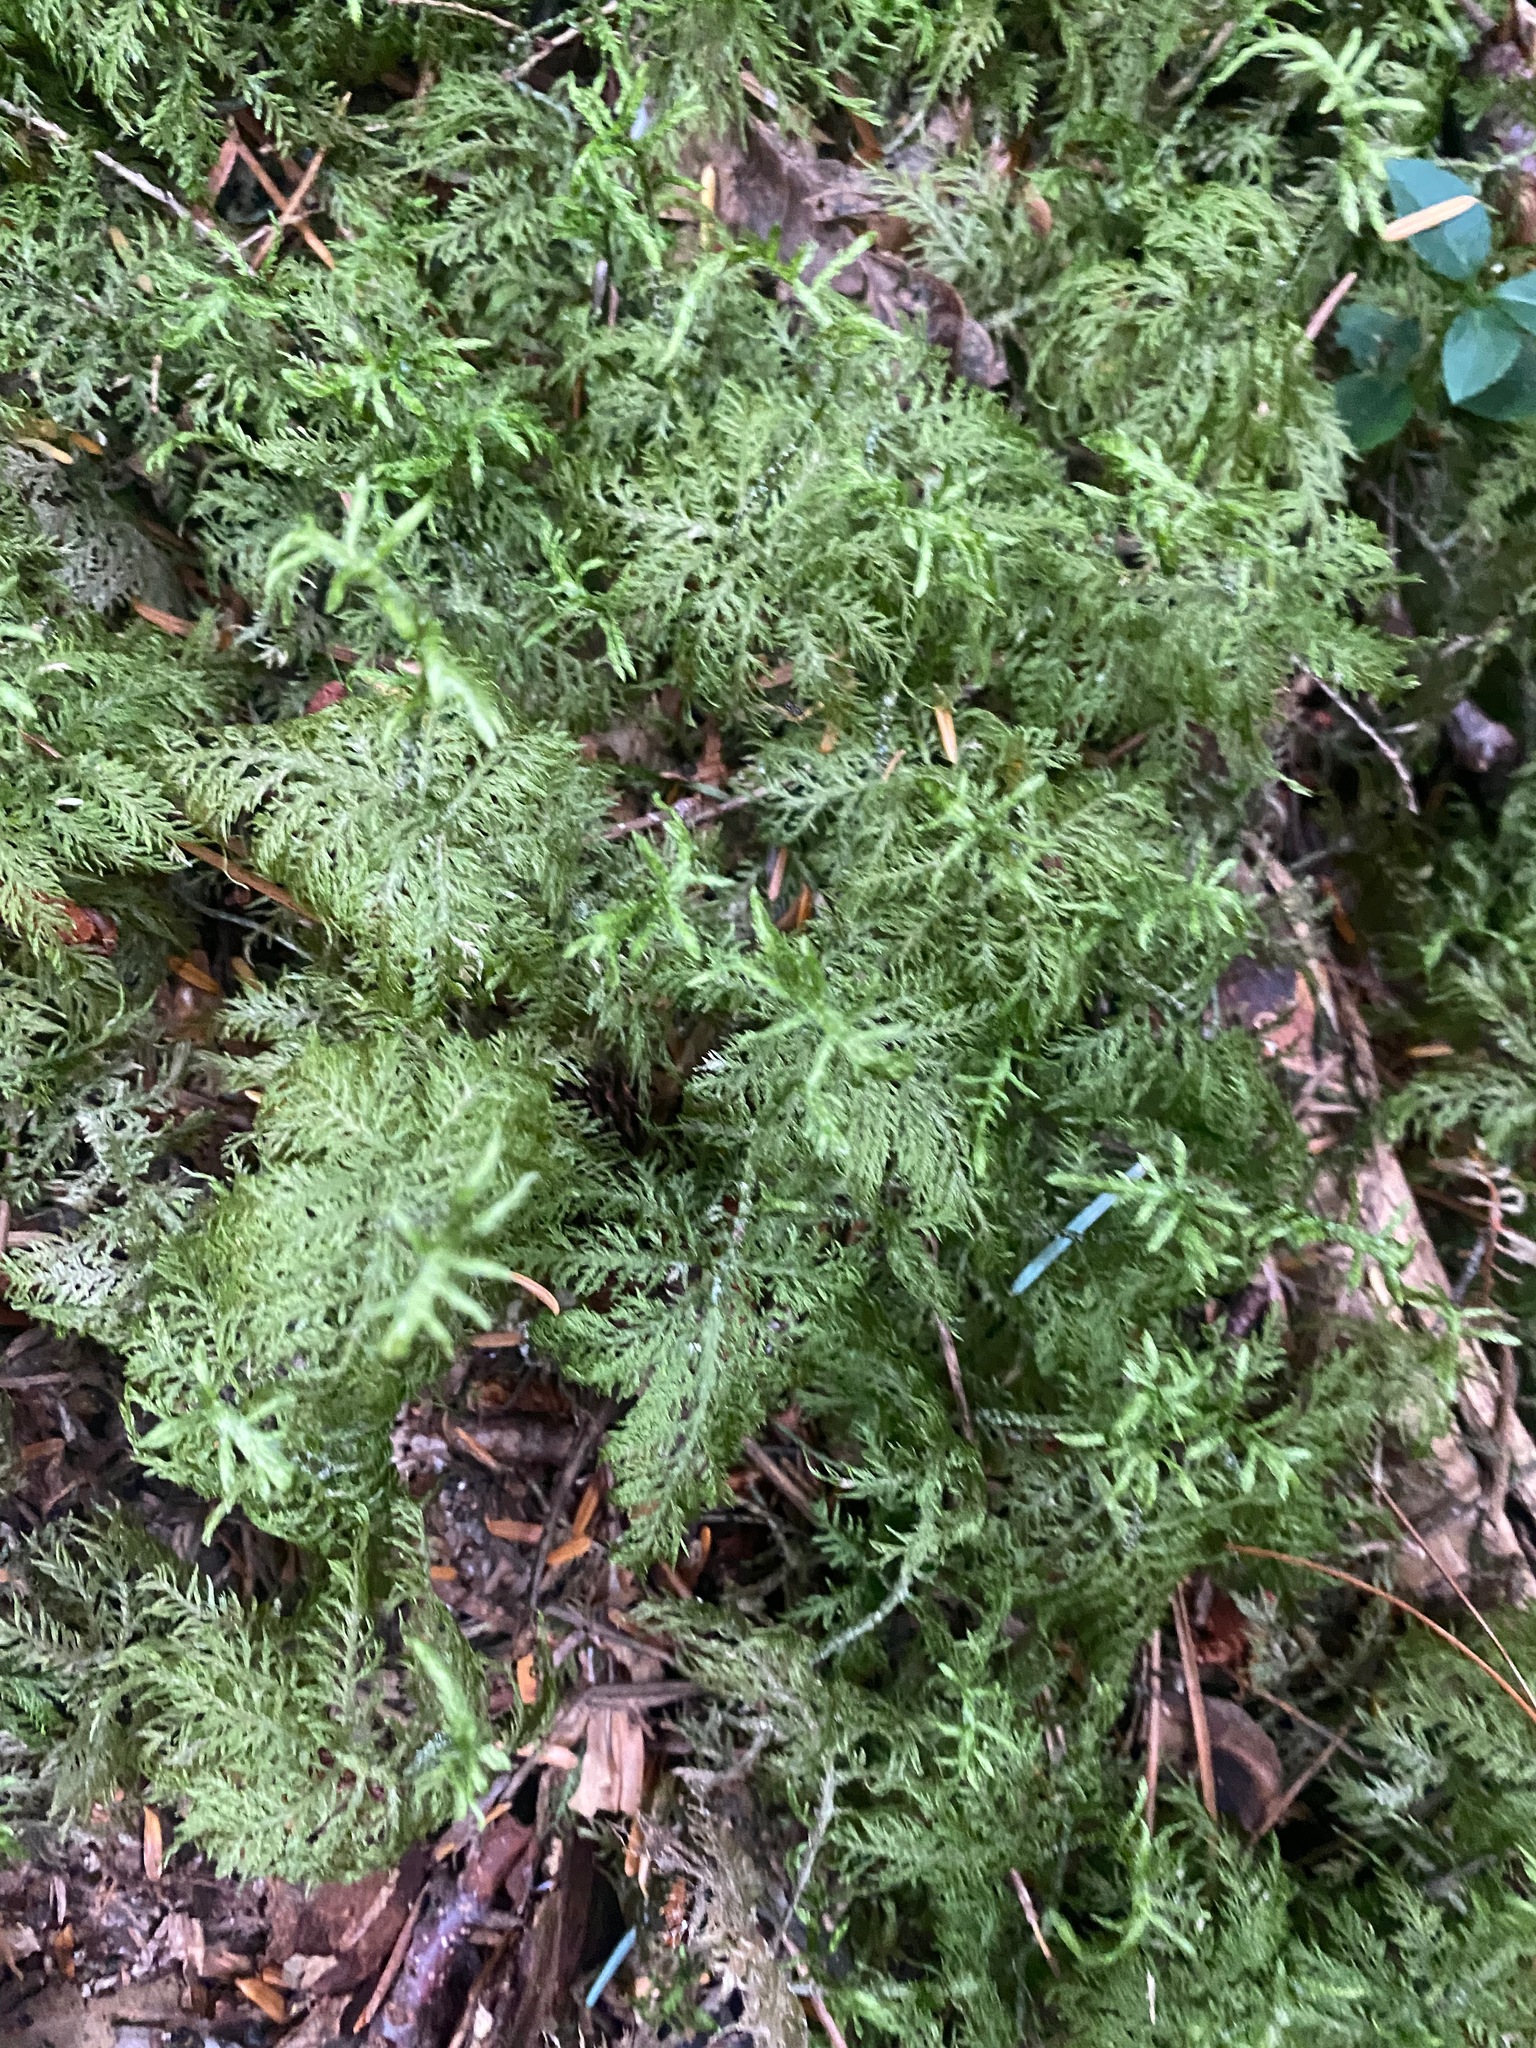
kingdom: Plantae
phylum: Bryophyta
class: Bryopsida
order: Hypnales
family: Hylocomiaceae
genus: Hylocomium
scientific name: Hylocomium splendens
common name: Stairstep moss
